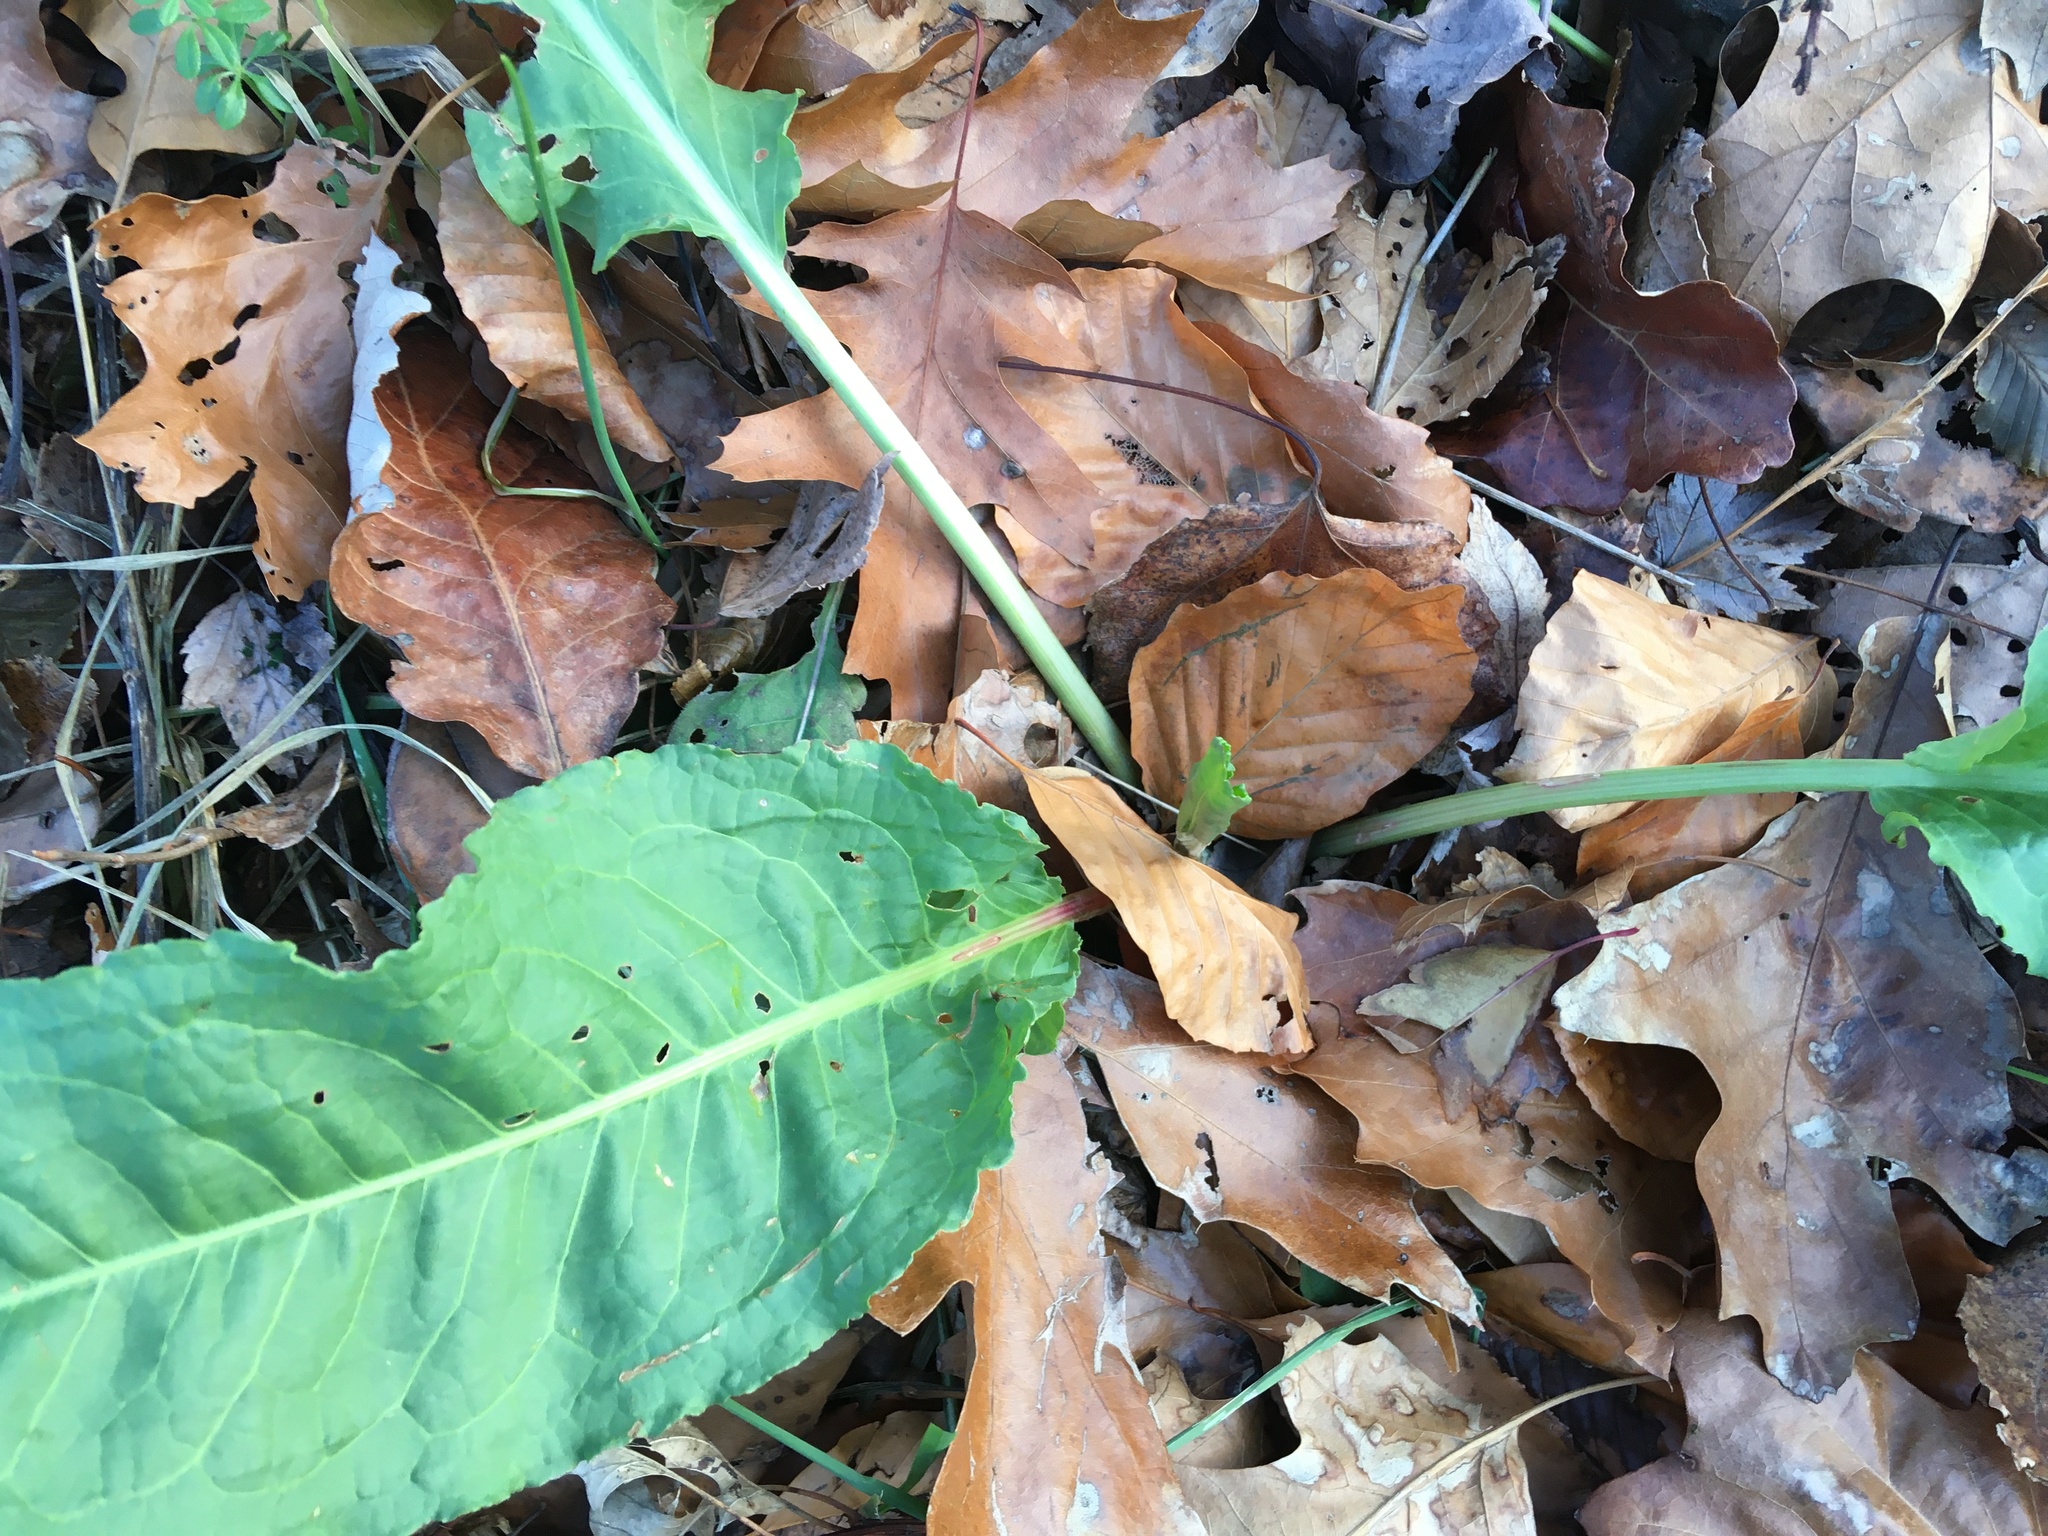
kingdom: Plantae
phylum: Tracheophyta
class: Magnoliopsida
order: Caryophyllales
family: Polygonaceae
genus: Rumex
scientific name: Rumex obtusifolius
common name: Bitter dock
